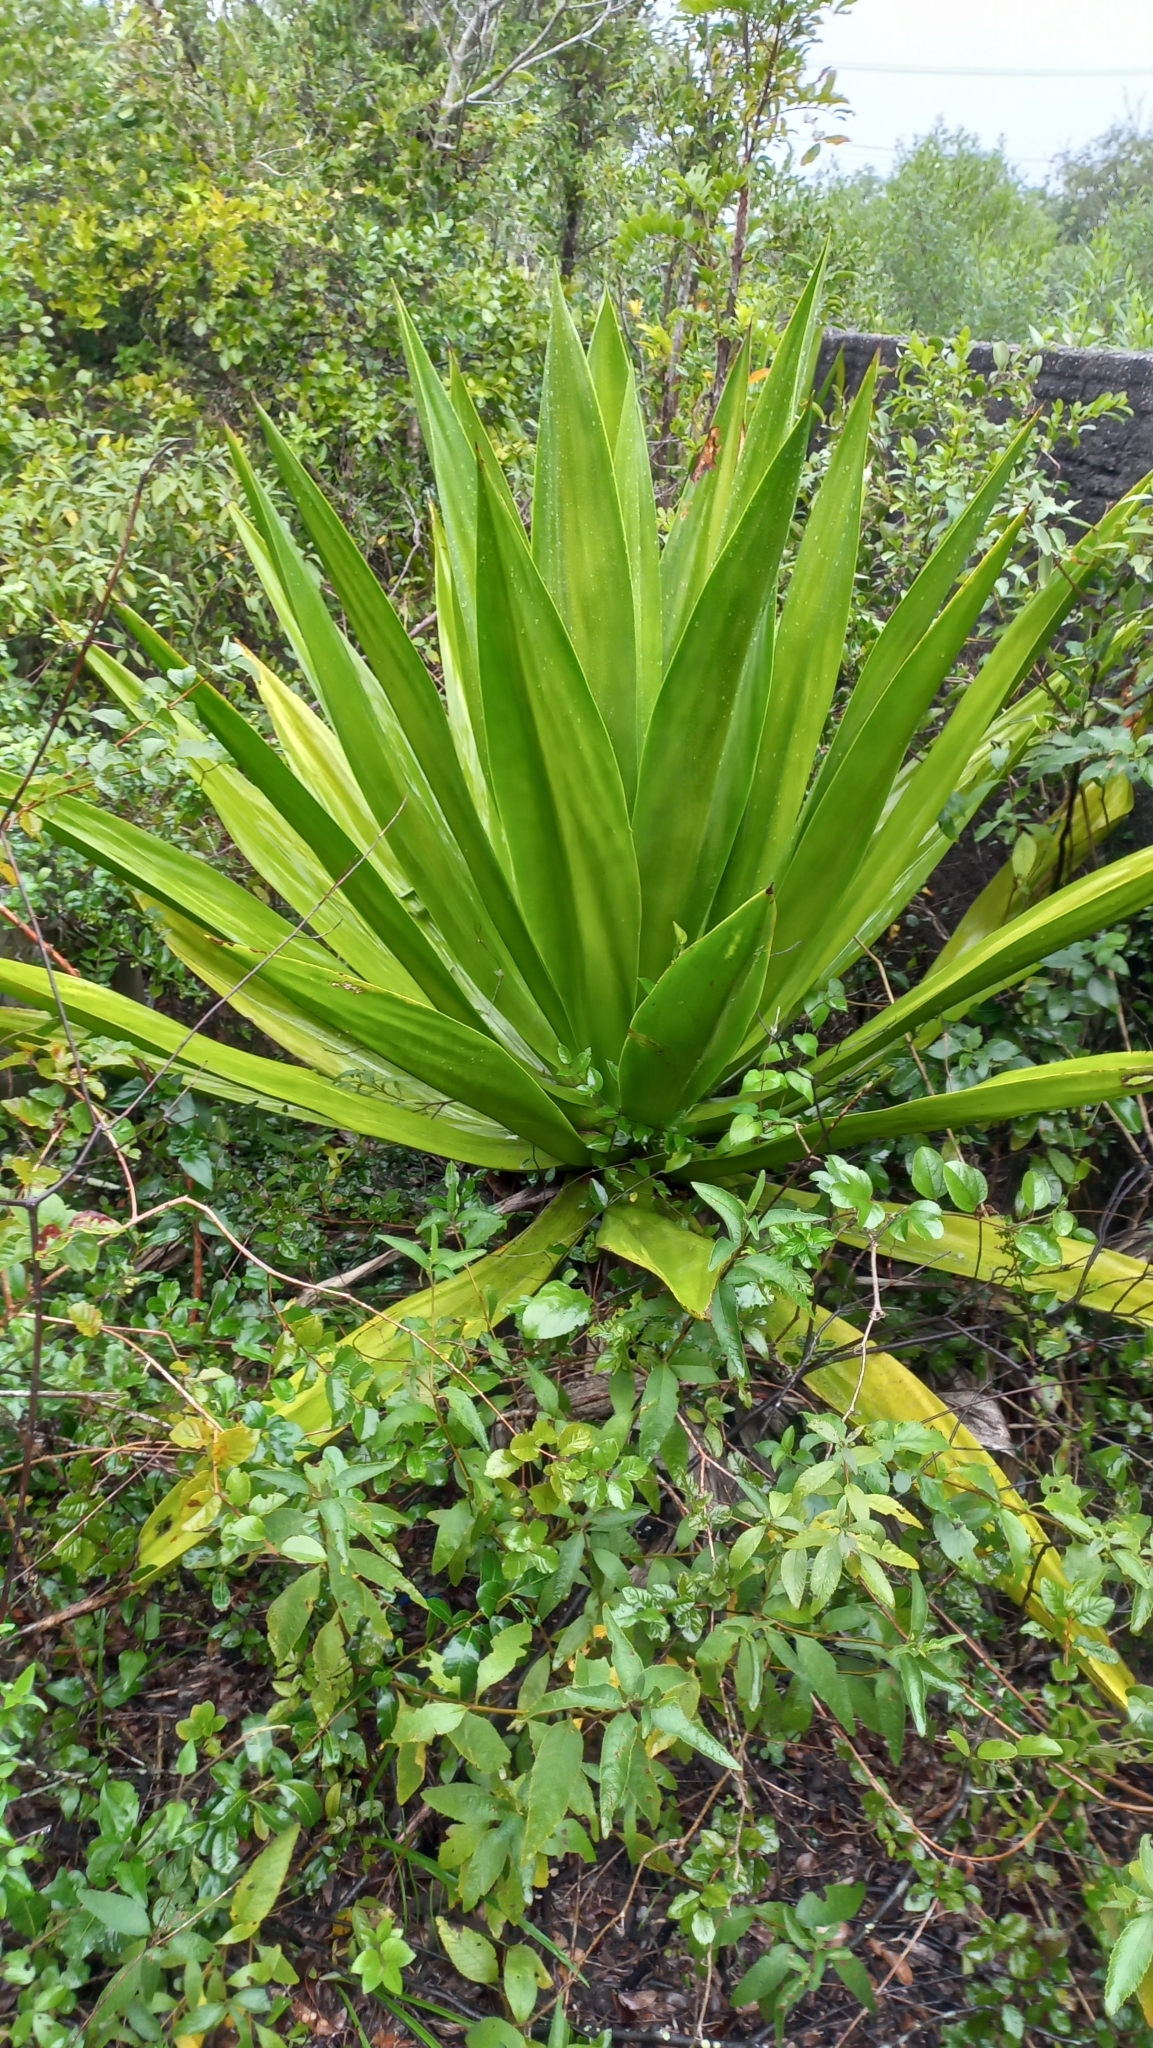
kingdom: Plantae
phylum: Tracheophyta
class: Liliopsida
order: Asparagales
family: Asparagaceae
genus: Furcraea
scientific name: Furcraea foetida
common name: Mauritius hemp
